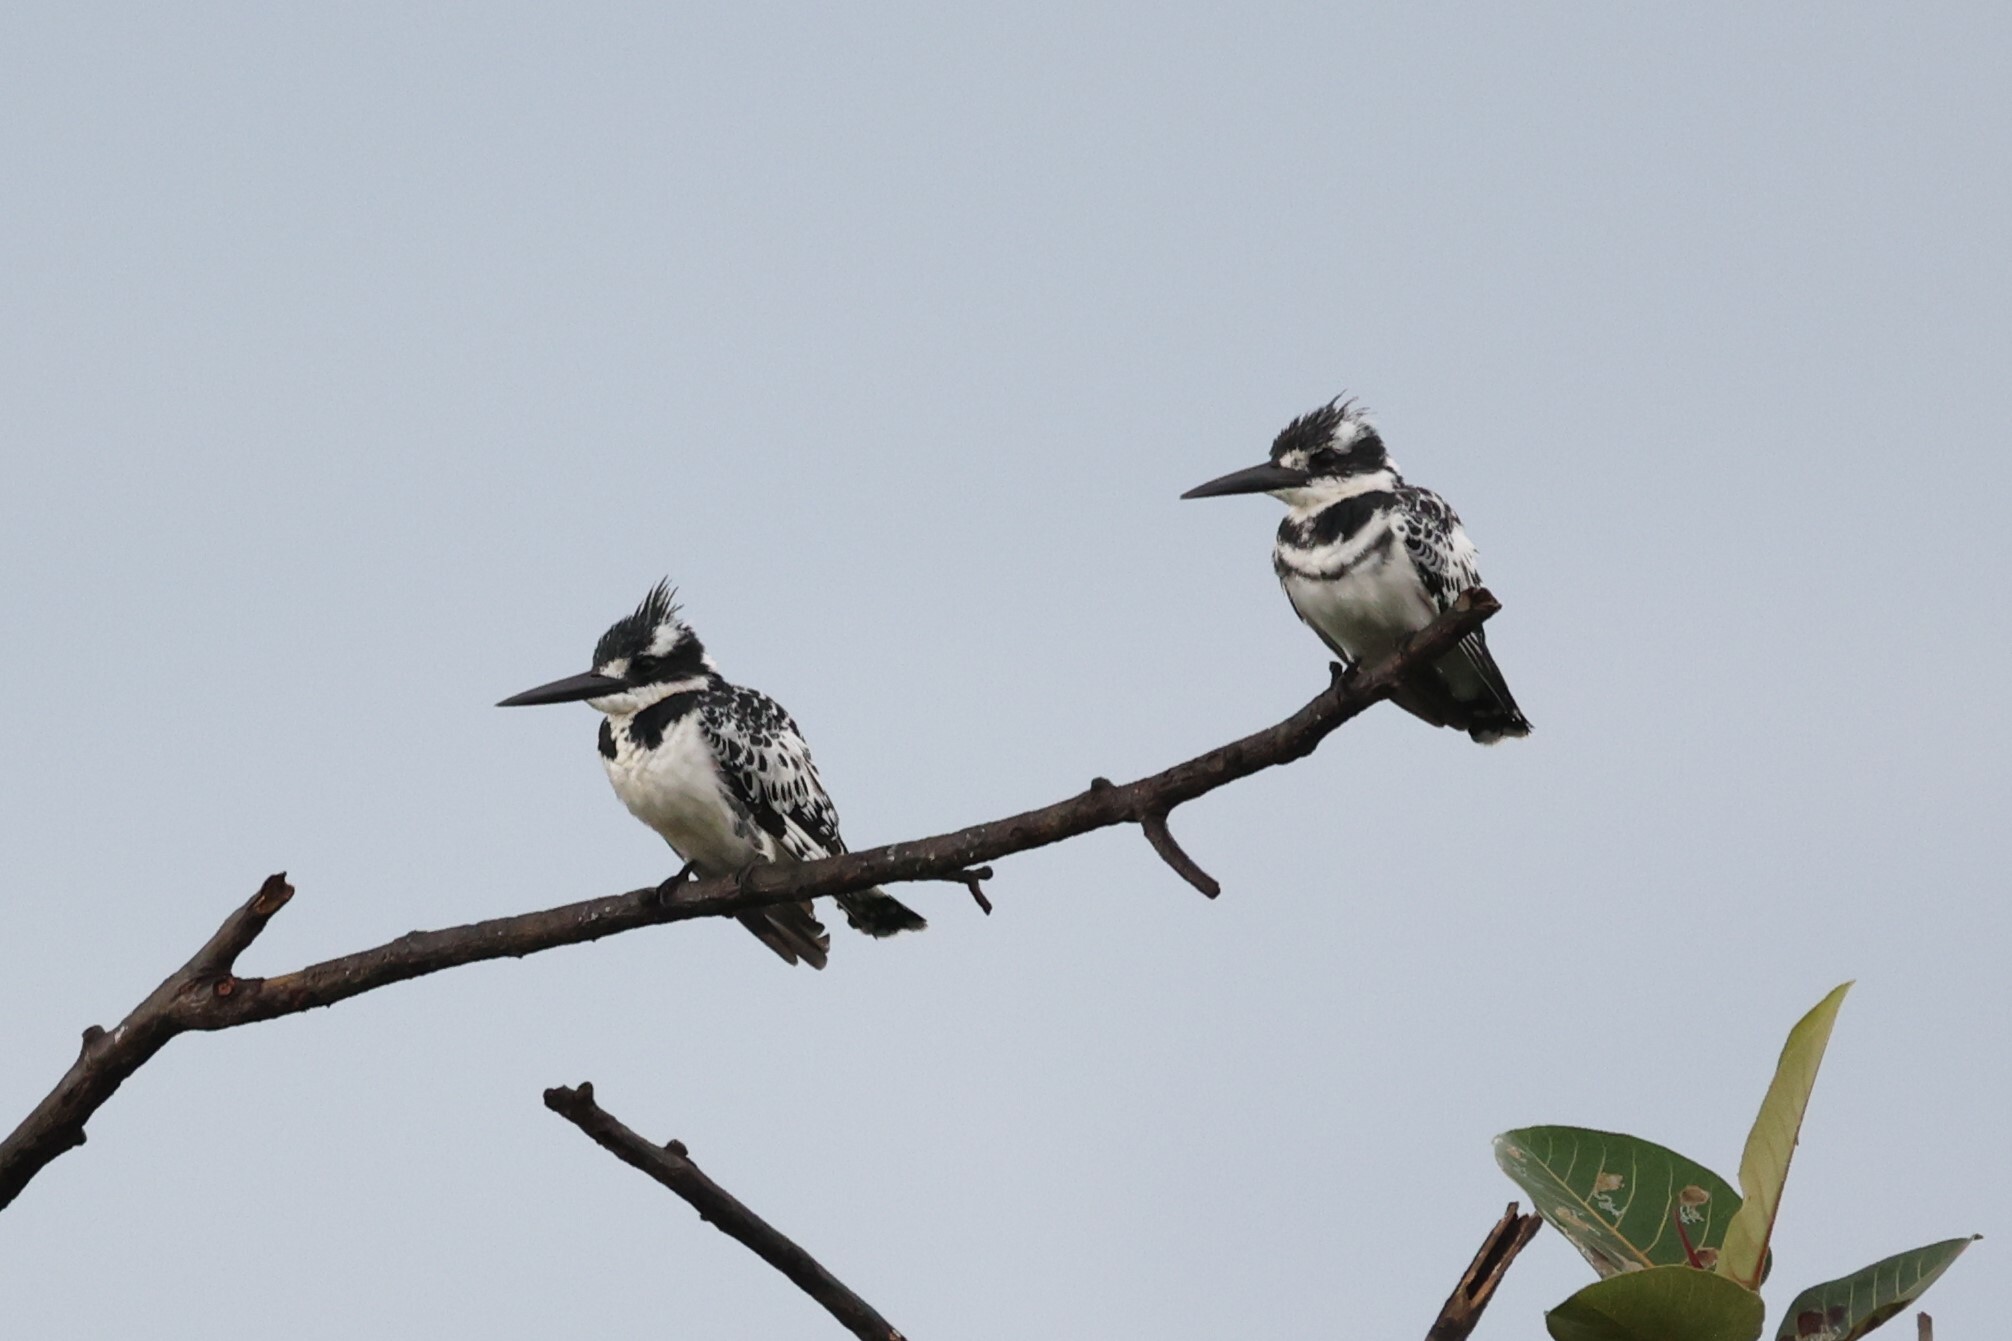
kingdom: Animalia
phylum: Chordata
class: Aves
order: Coraciiformes
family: Alcedinidae
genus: Ceryle
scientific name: Ceryle rudis
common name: Pied kingfisher
